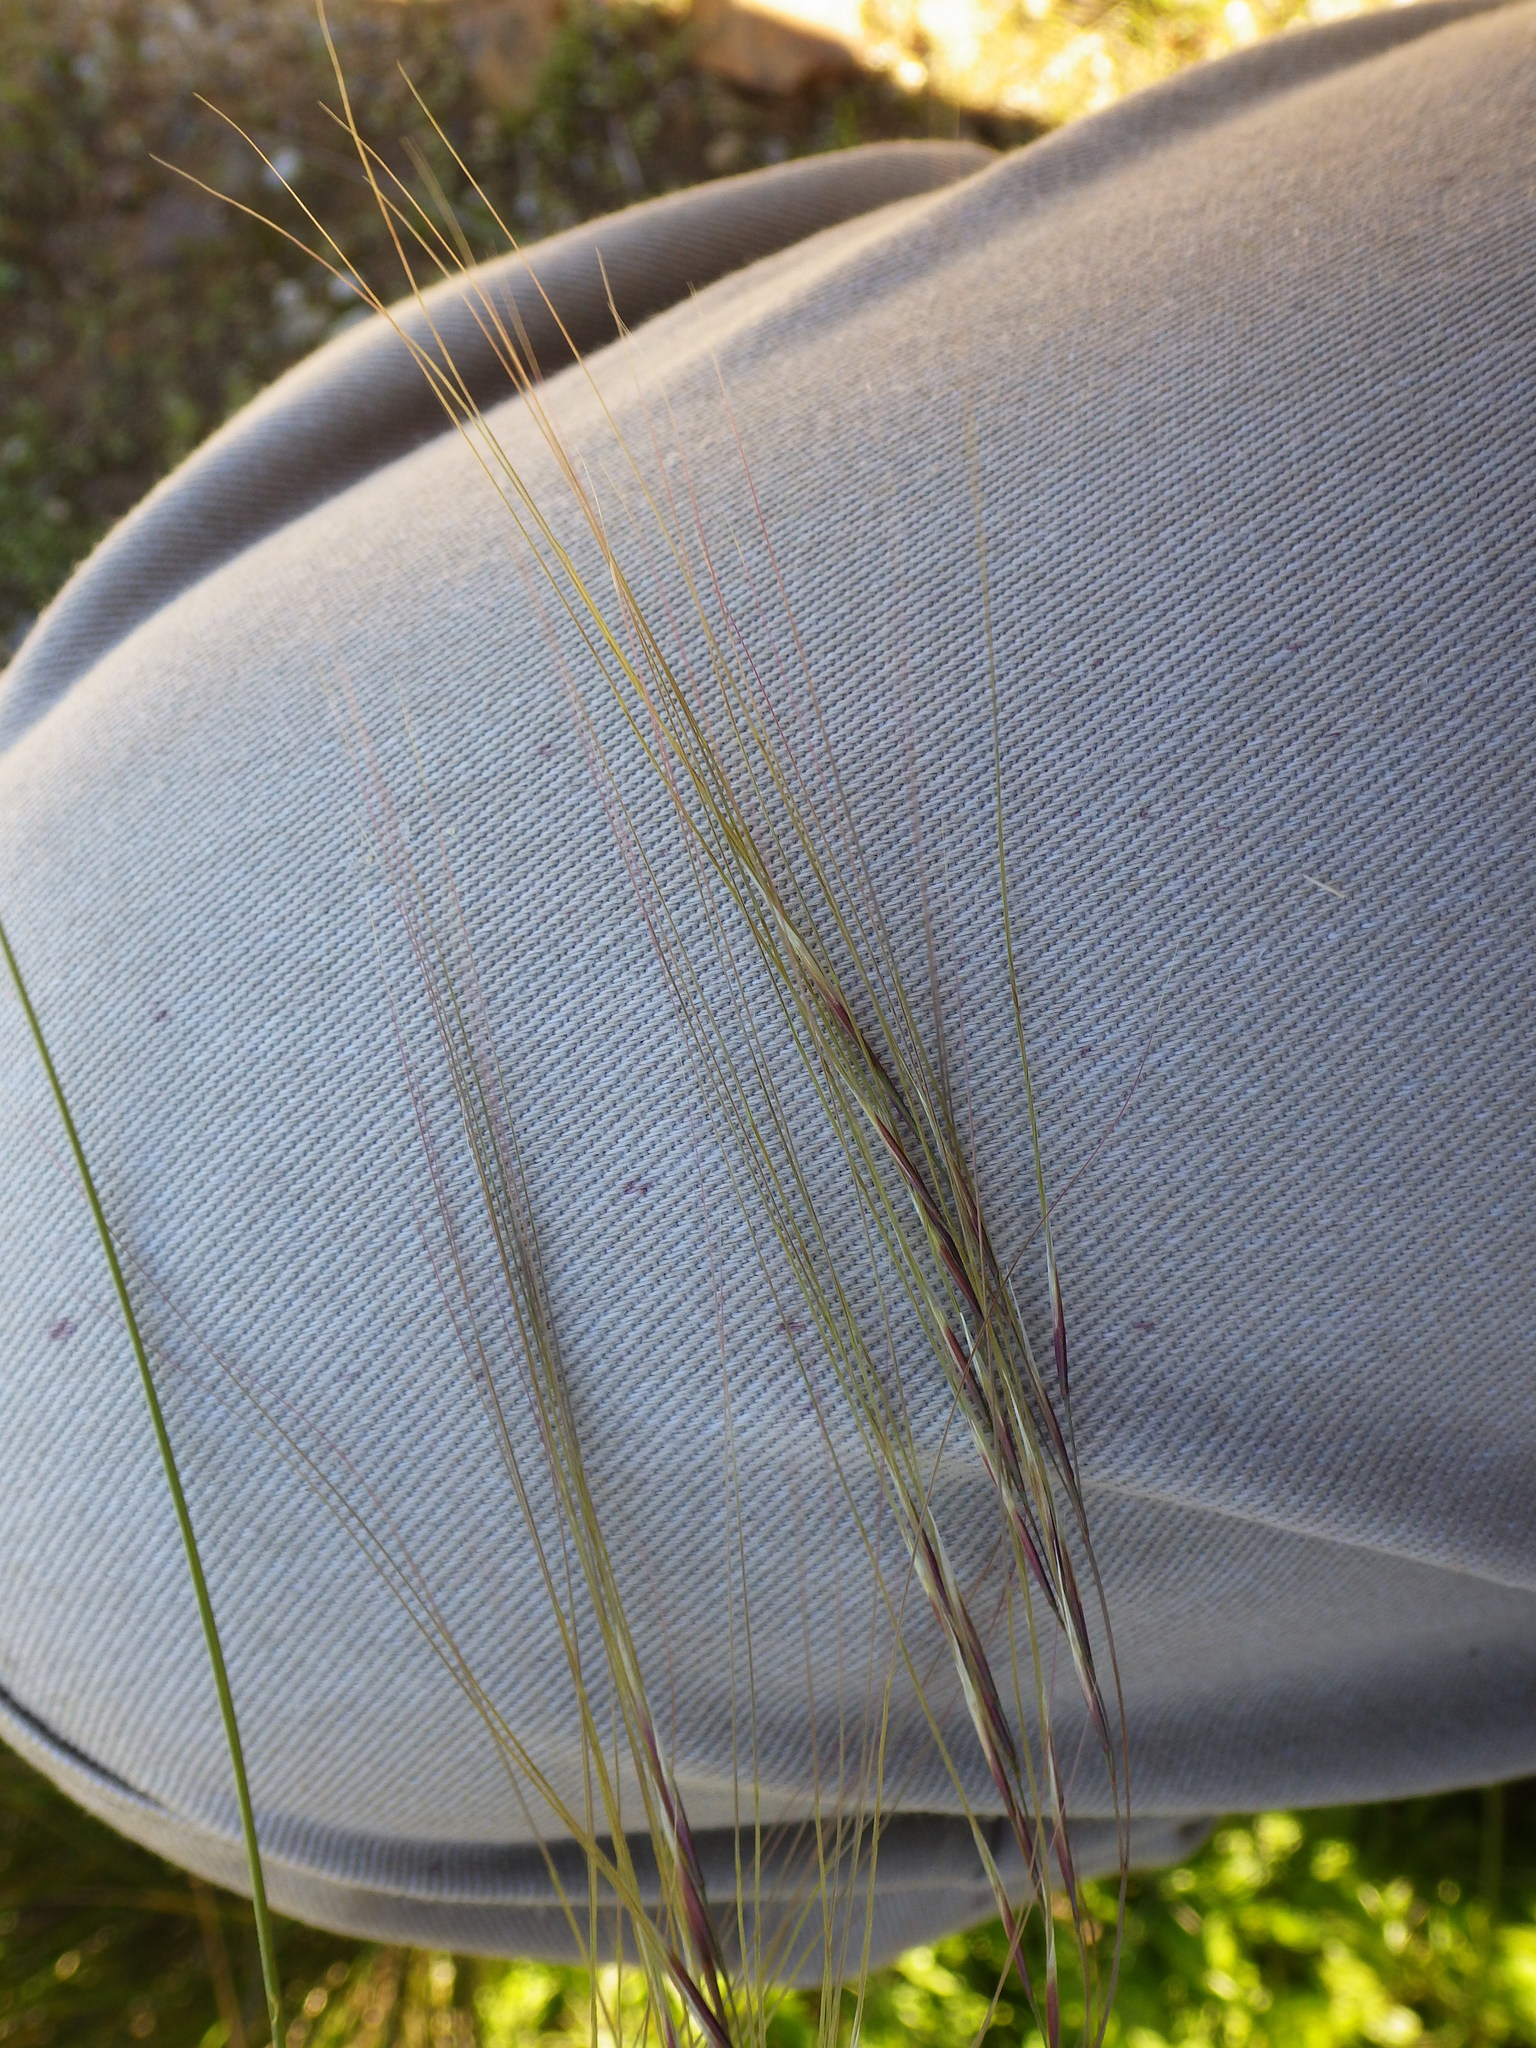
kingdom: Plantae
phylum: Tracheophyta
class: Liliopsida
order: Poales
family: Poaceae
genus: Nassella
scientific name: Nassella pulchra
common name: Purple needlegrass
